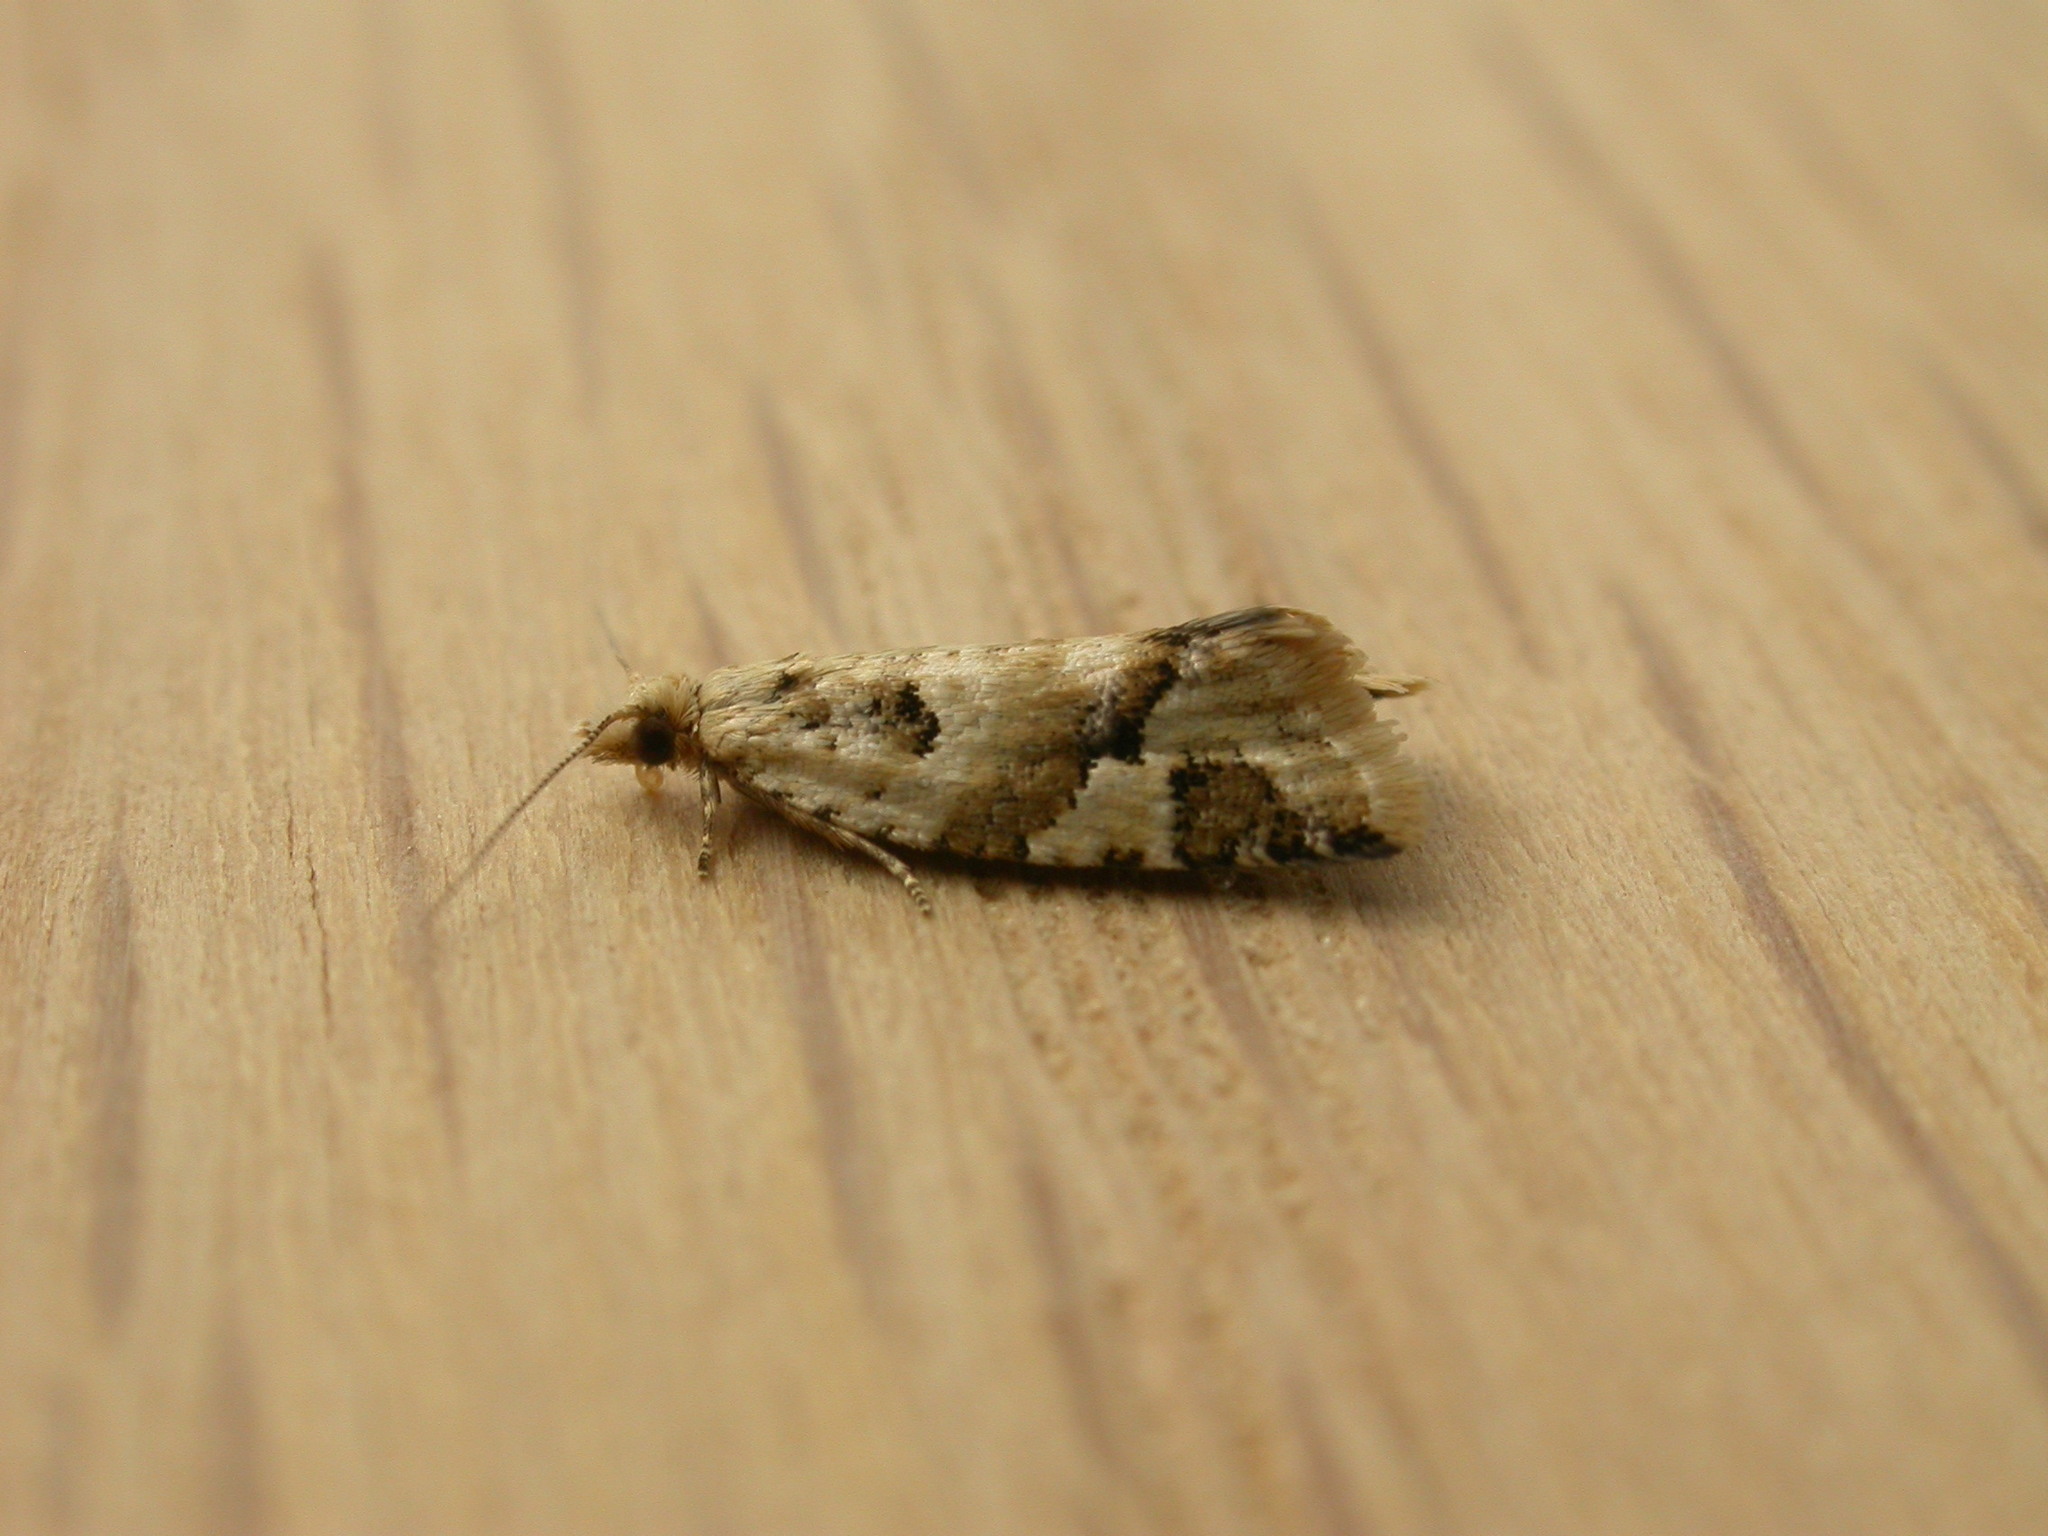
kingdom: Animalia
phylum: Arthropoda
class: Insecta
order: Lepidoptera
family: Tortricidae
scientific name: Tortricidae
